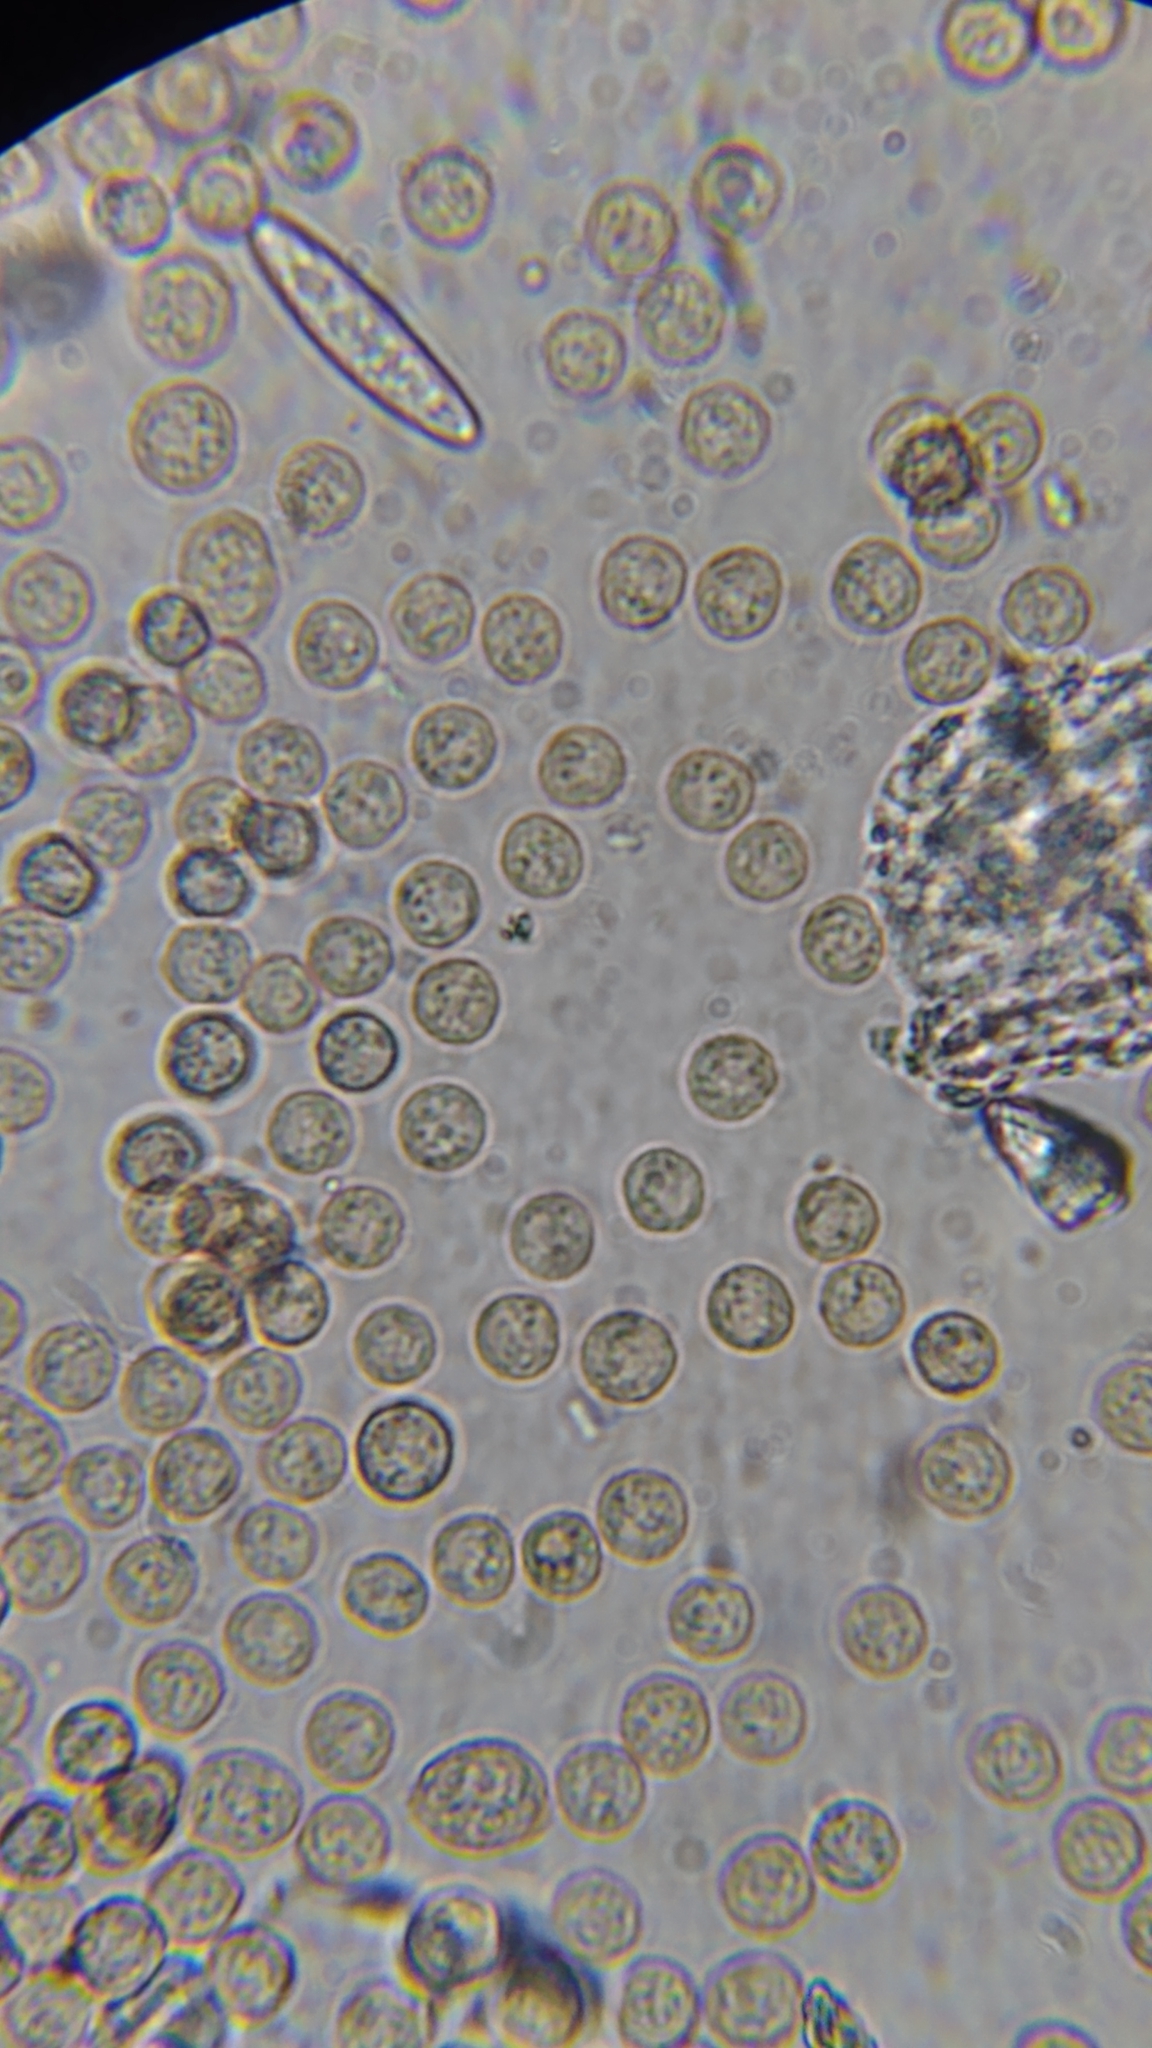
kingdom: Protozoa
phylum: Mycetozoa
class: Myxomycetes
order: Cribrariales
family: Cribrariaceae
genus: Cribraria
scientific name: Cribraria purpurea
